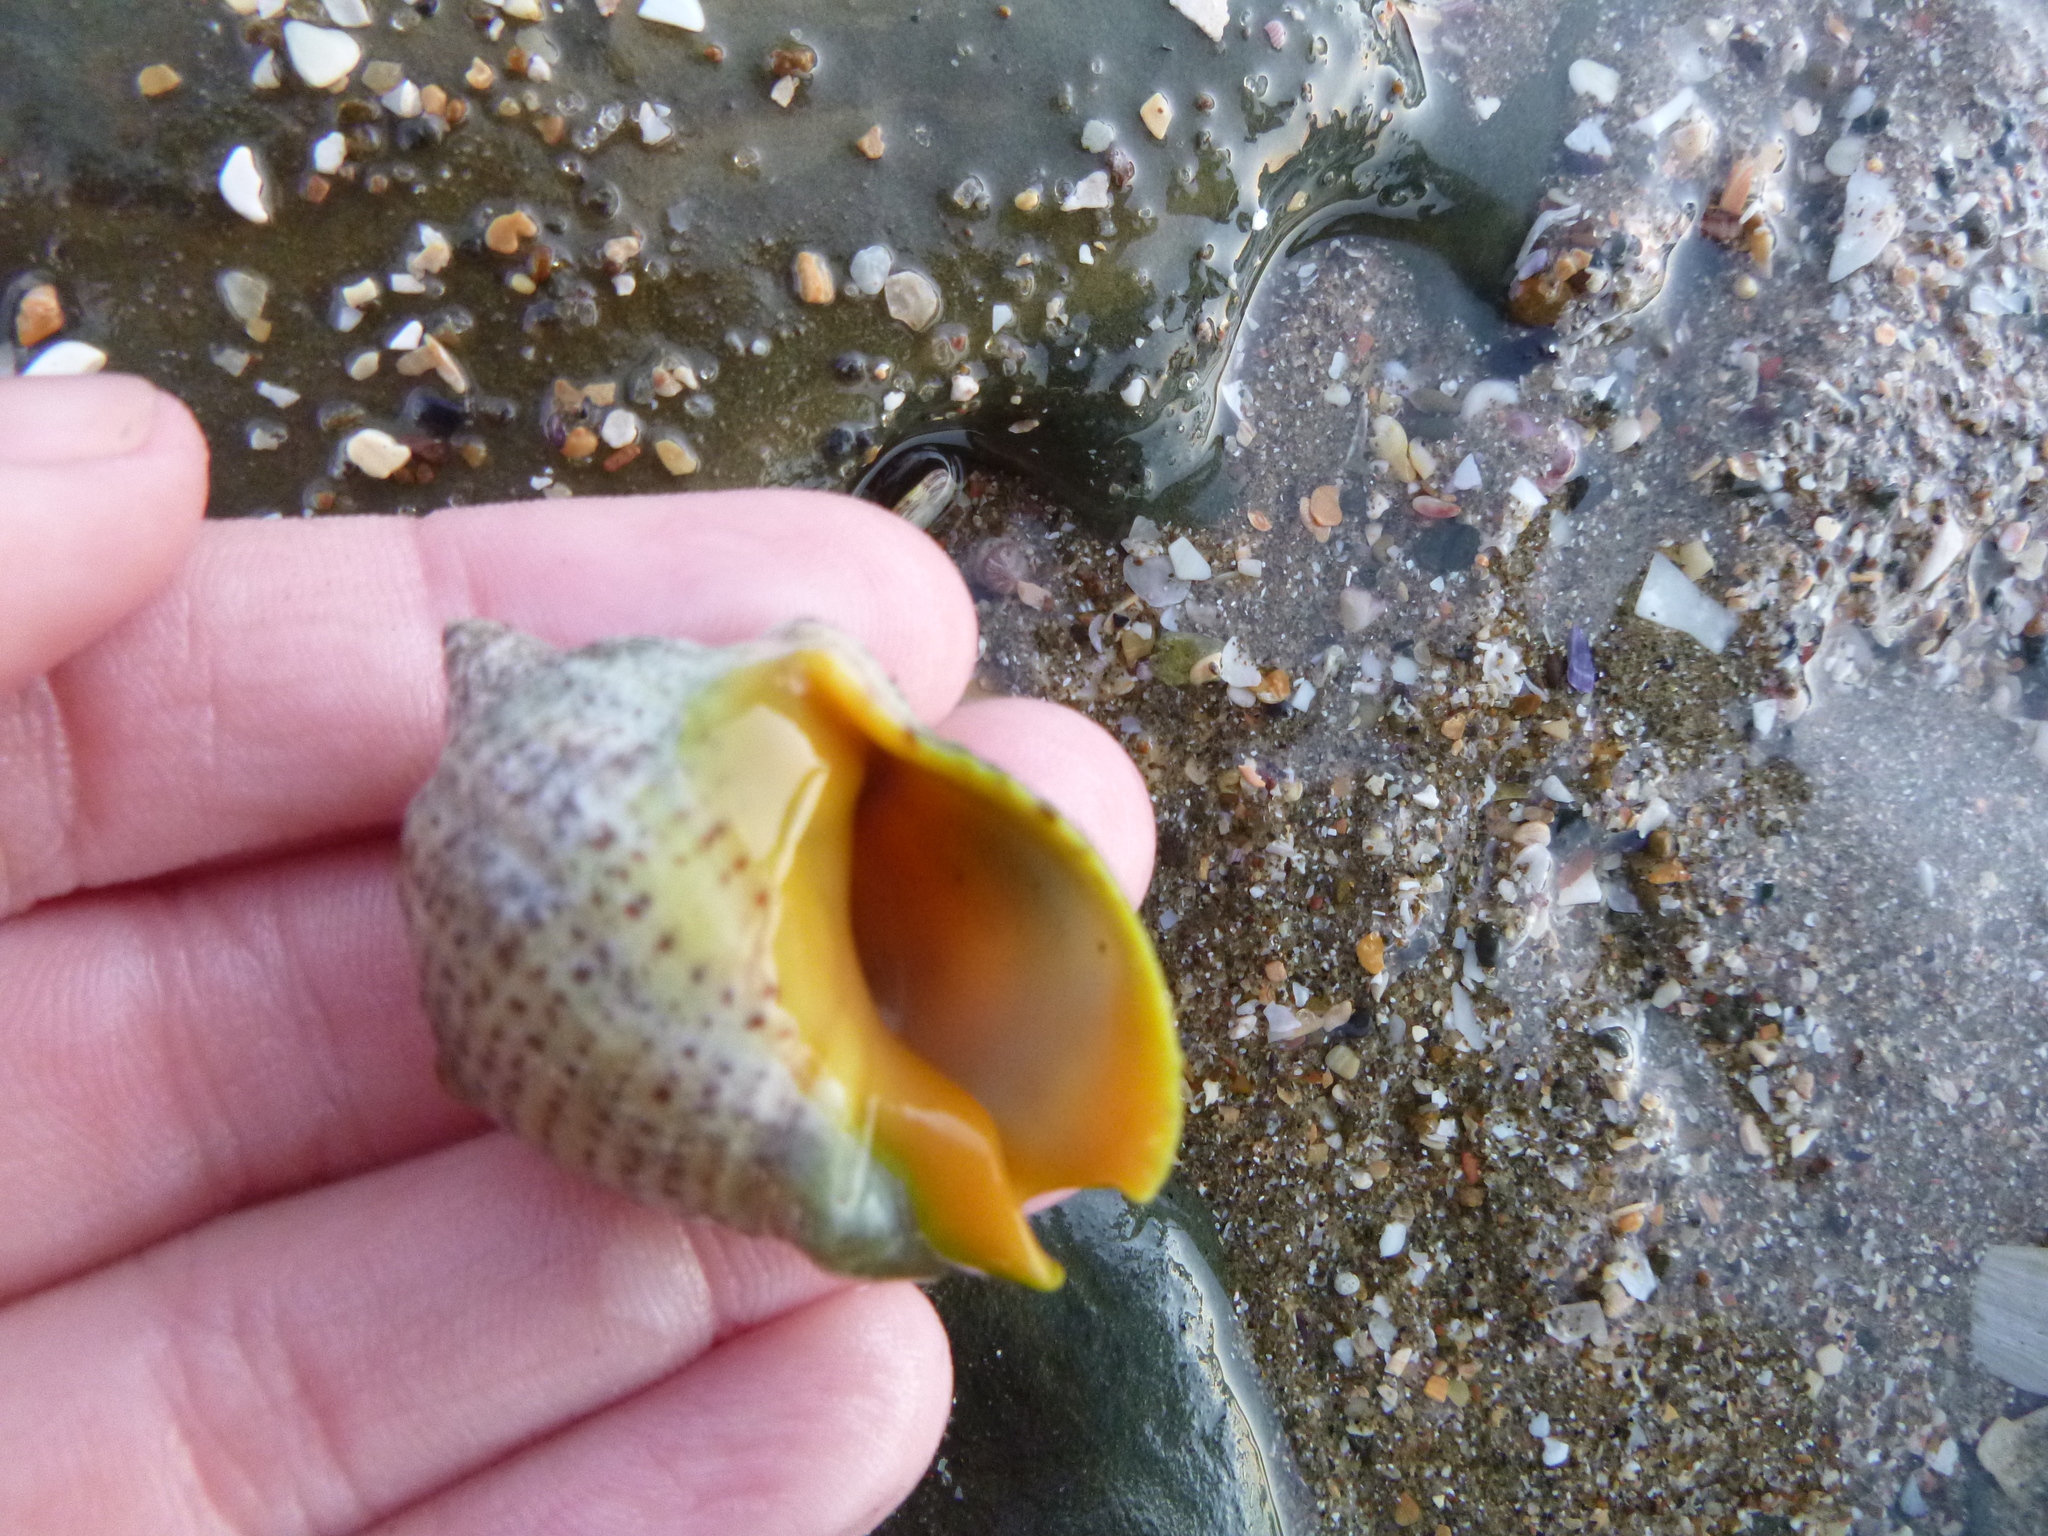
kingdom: Animalia
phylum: Mollusca
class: Gastropoda
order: Neogastropoda
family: Cominellidae
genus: Cominella
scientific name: Cominella adspersa
